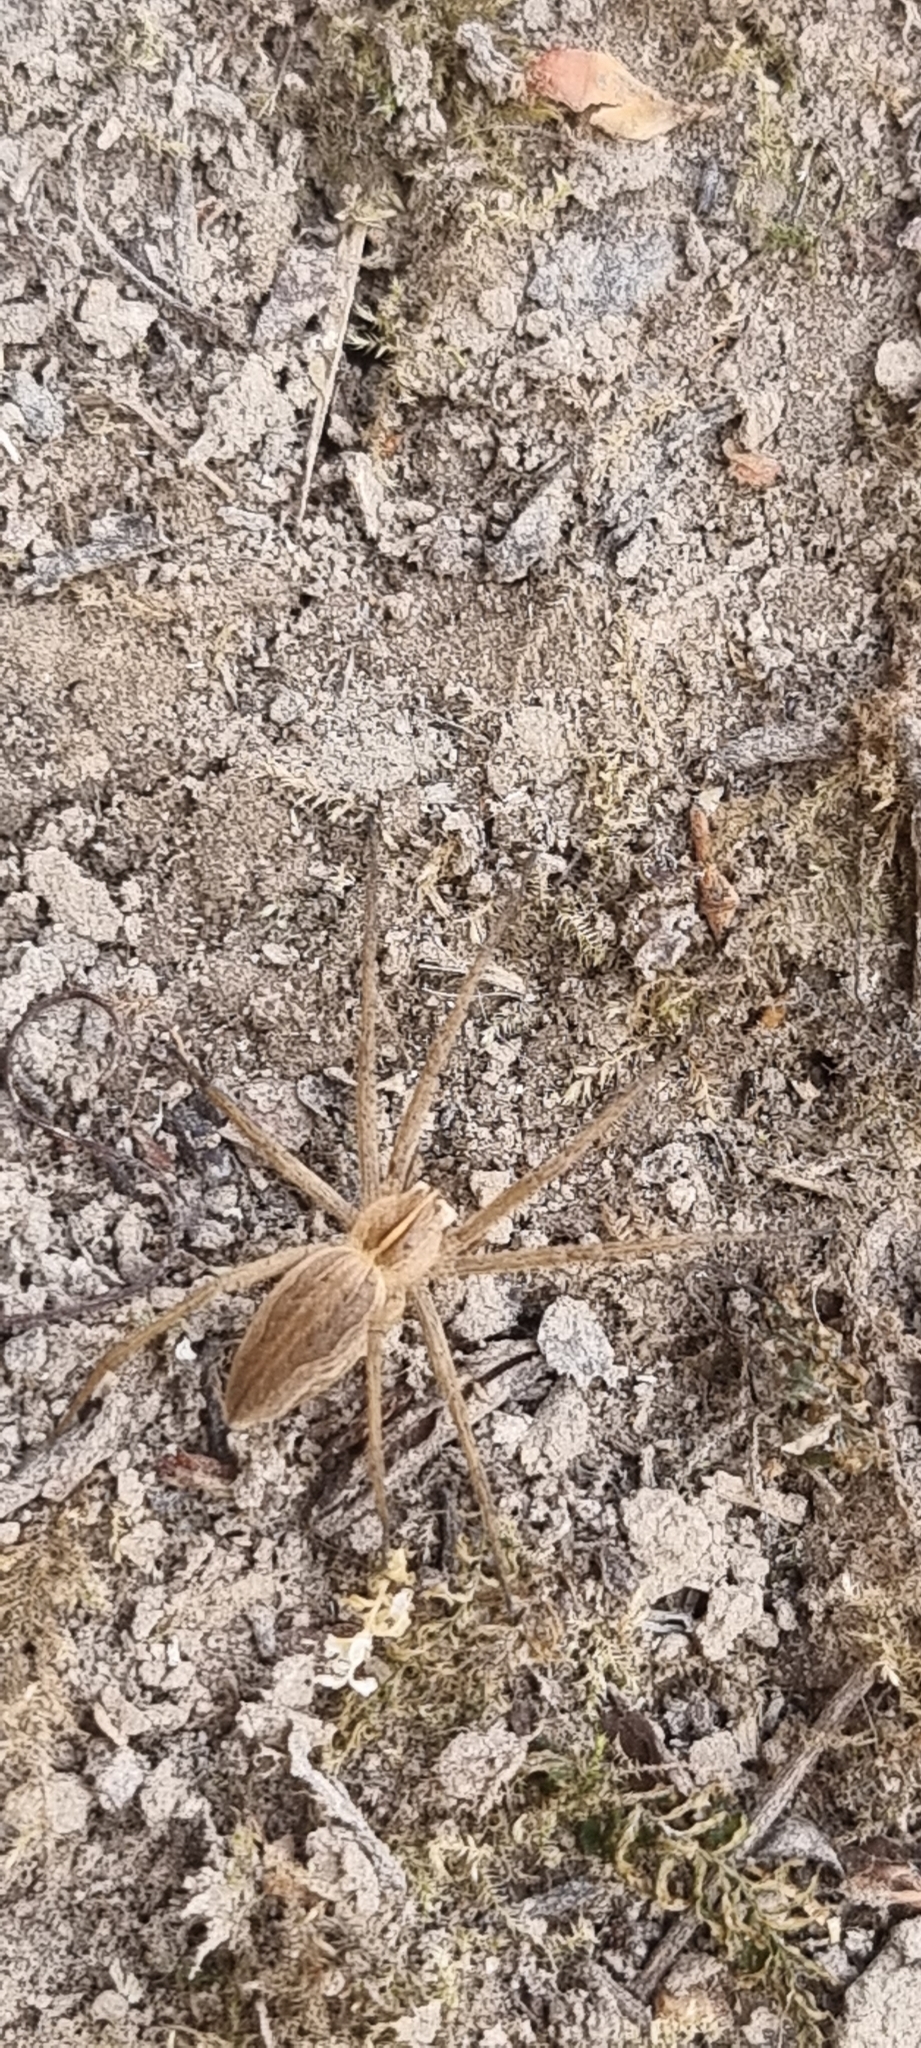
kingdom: Animalia
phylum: Arthropoda
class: Arachnida
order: Araneae
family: Pisauridae
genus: Pisaura
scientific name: Pisaura mirabilis
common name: Tent spider
